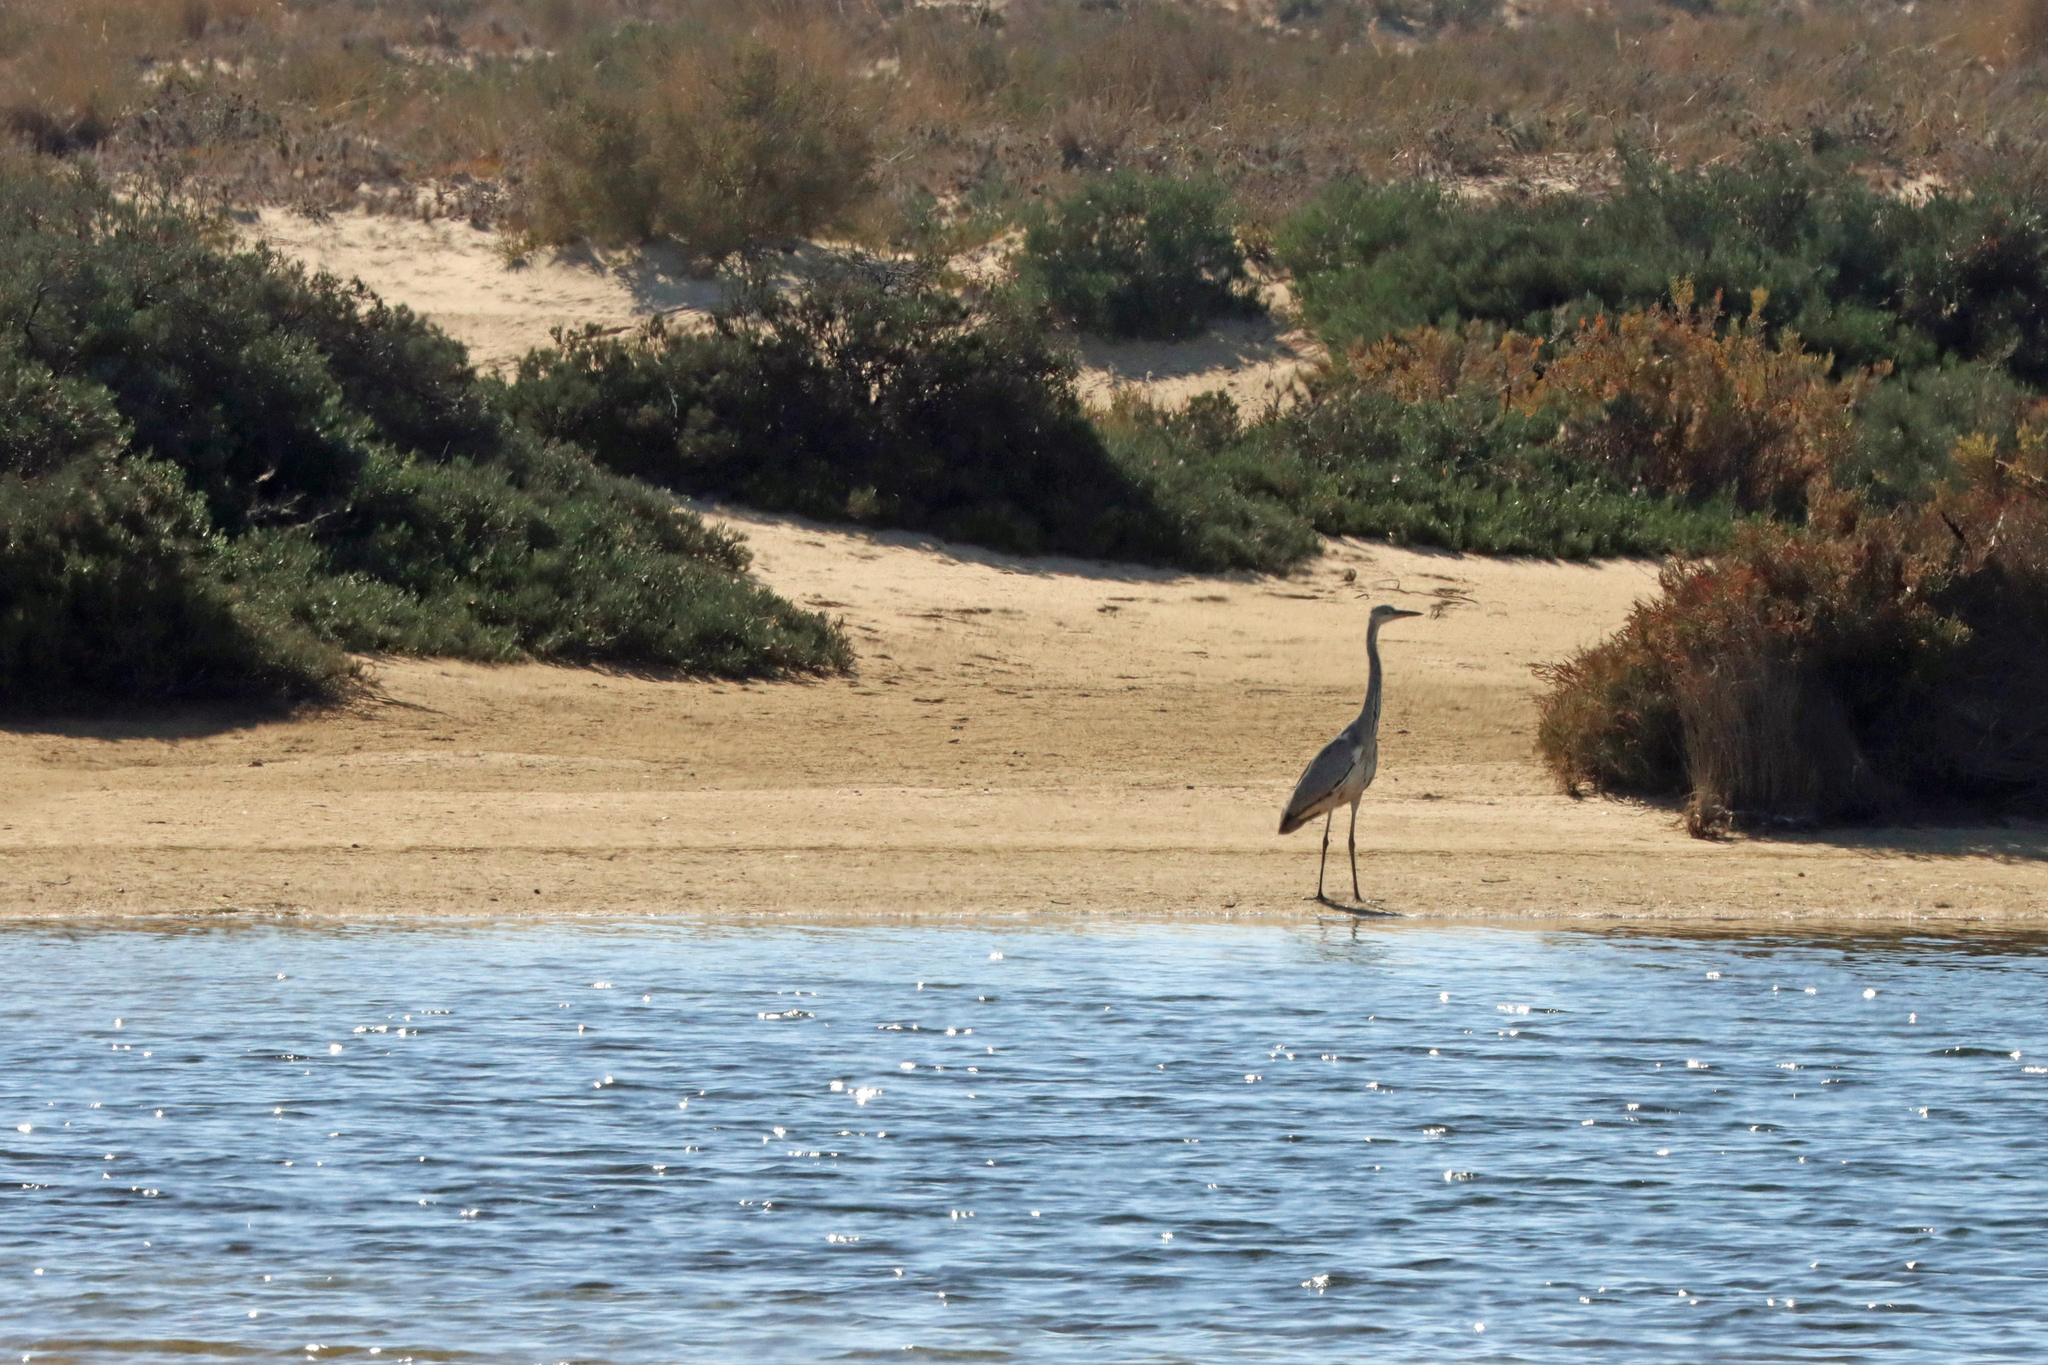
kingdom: Animalia
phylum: Chordata
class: Aves
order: Pelecaniformes
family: Ardeidae
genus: Ardea
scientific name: Ardea cinerea
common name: Grey heron
